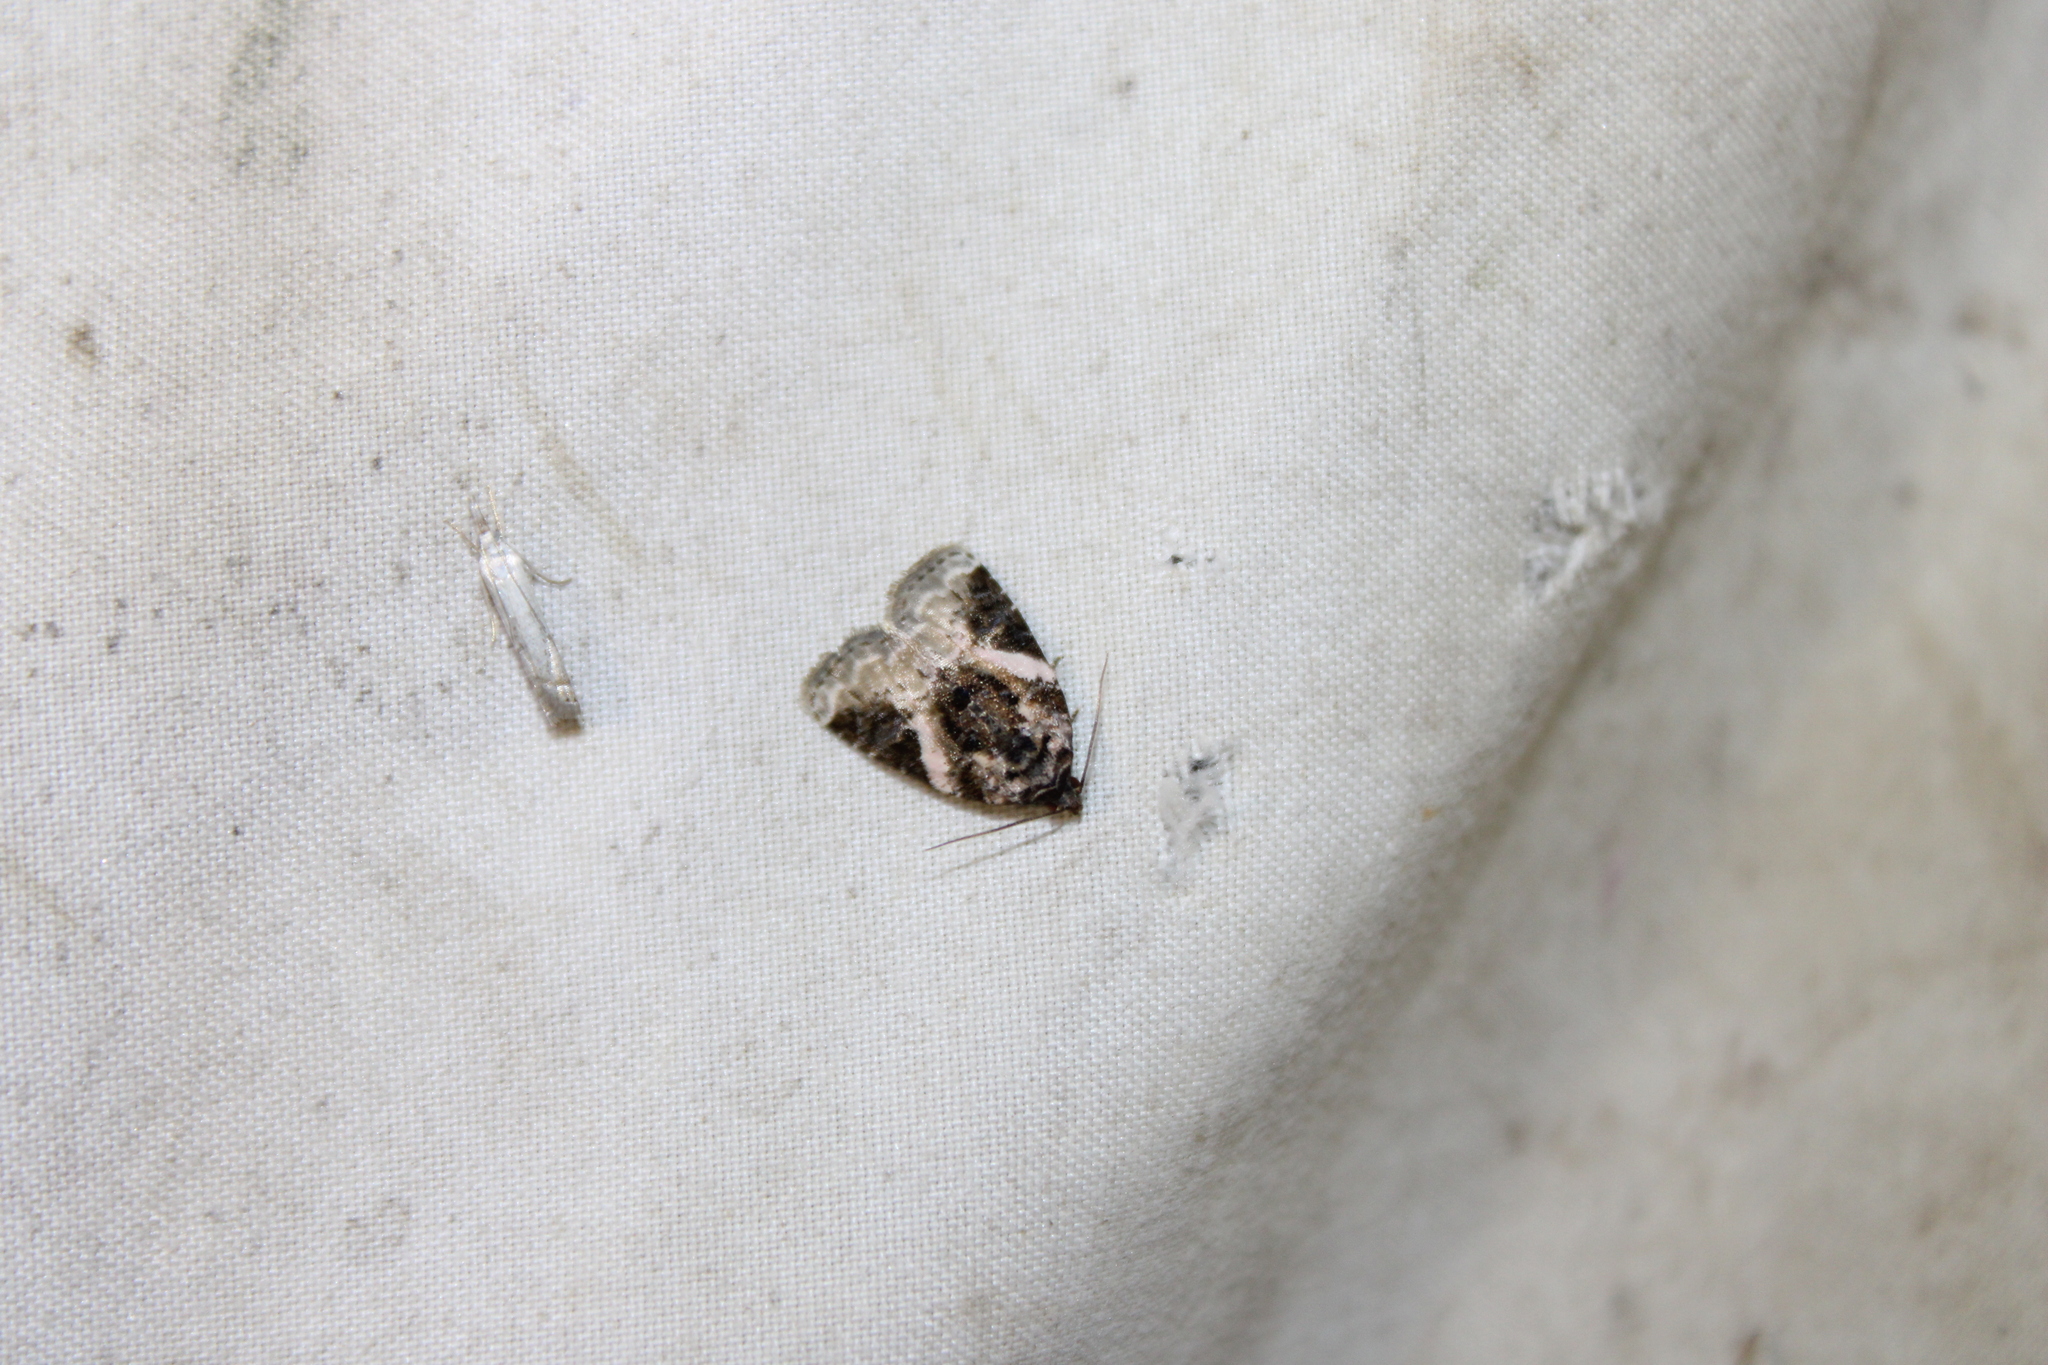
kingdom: Animalia
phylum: Arthropoda
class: Insecta
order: Lepidoptera
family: Noctuidae
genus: Pseudeustrotia
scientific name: Pseudeustrotia carneola
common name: Pink-barred lithacodia moth
